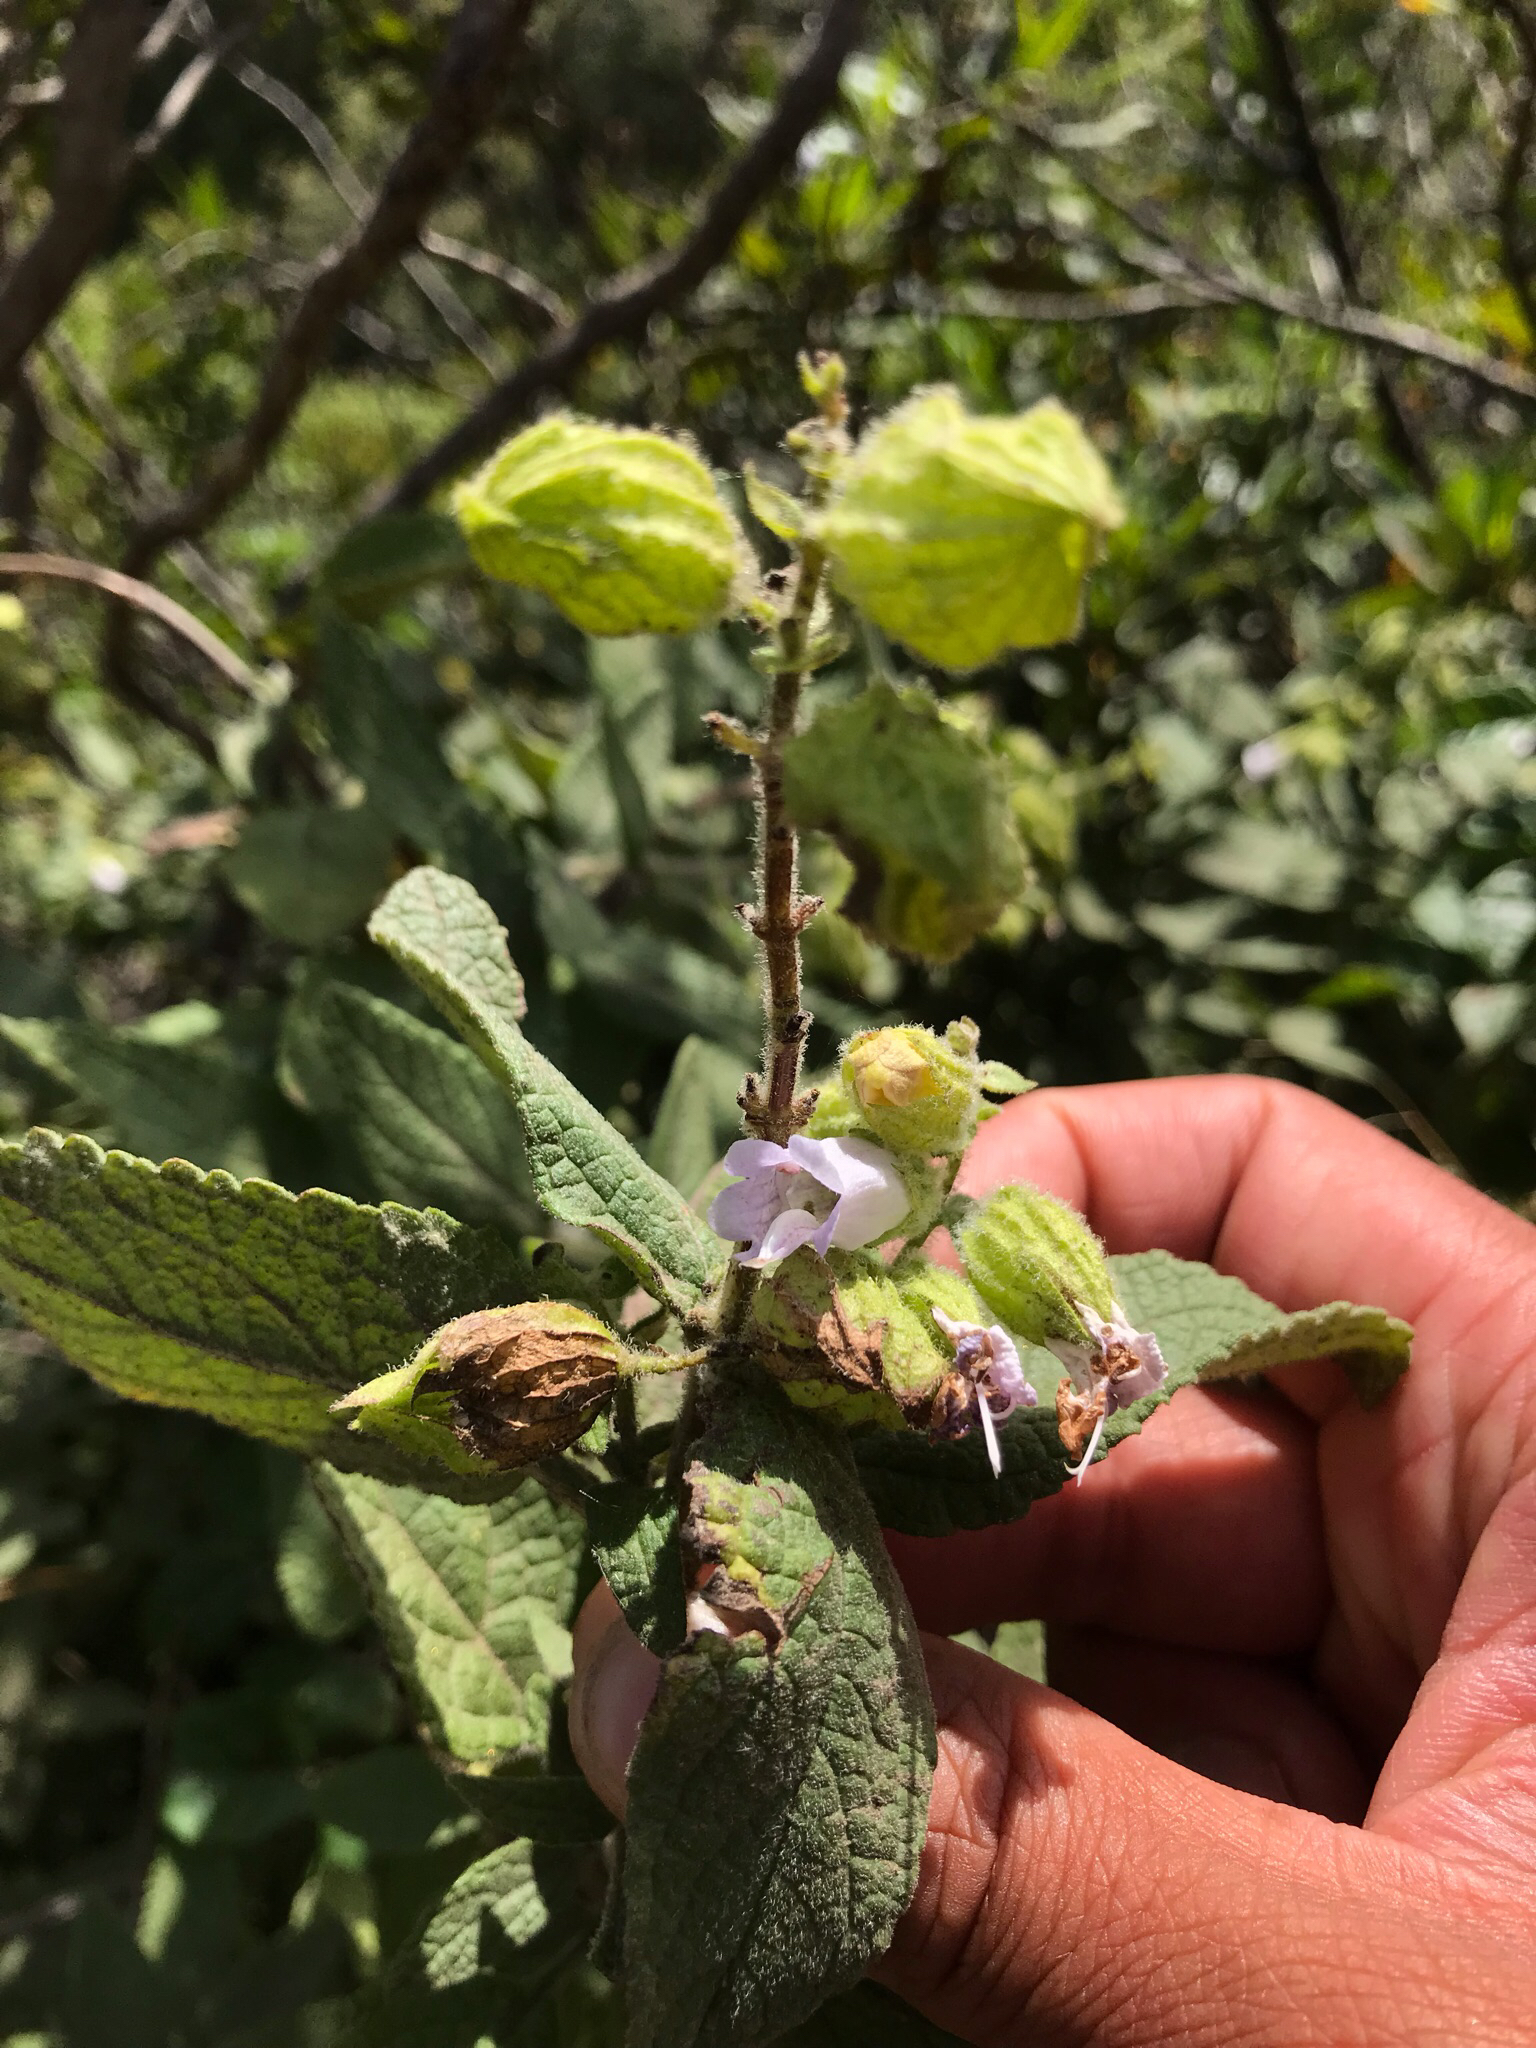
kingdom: Plantae
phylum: Tracheophyta
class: Magnoliopsida
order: Lamiales
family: Lamiaceae
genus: Lepechinia
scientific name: Lepechinia calycina
